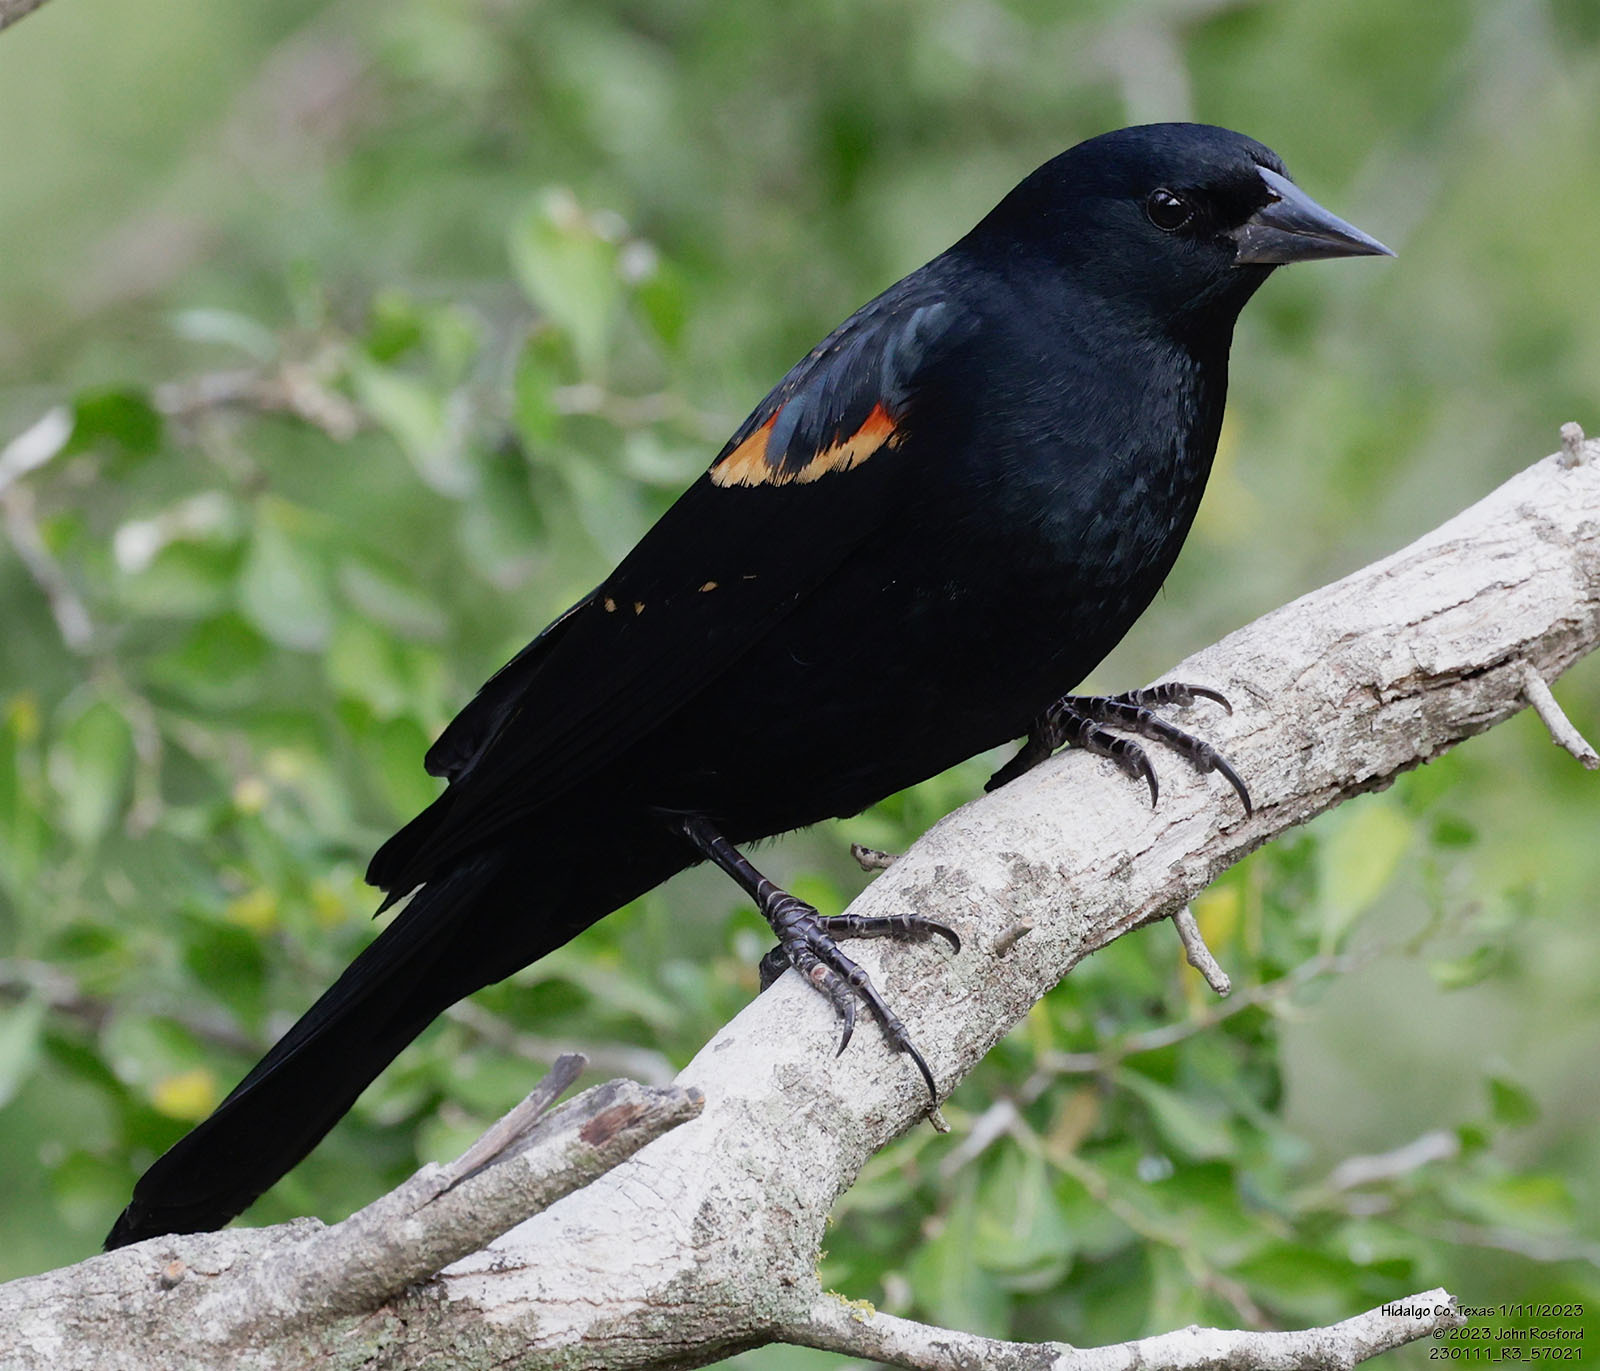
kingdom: Animalia
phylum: Chordata
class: Aves
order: Passeriformes
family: Icteridae
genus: Agelaius
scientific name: Agelaius phoeniceus
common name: Red-winged blackbird
